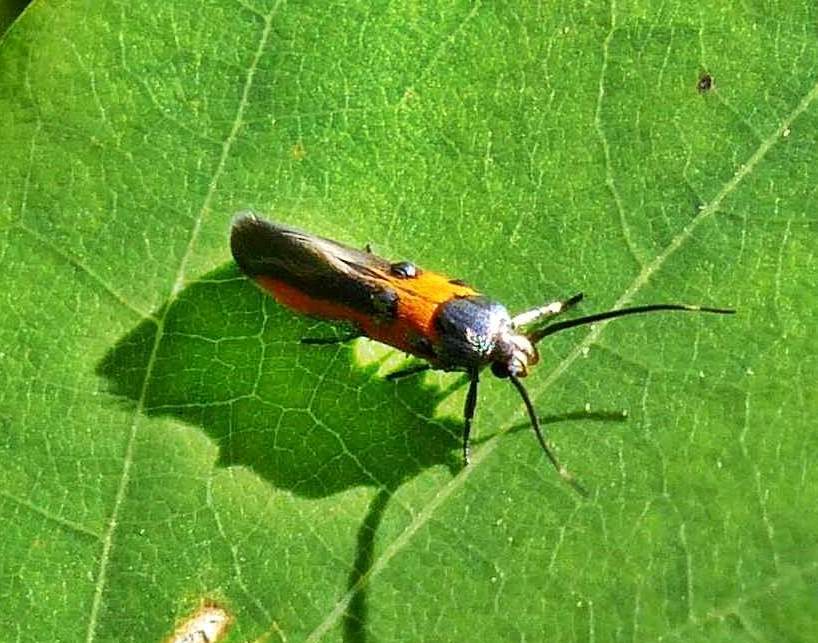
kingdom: Animalia
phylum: Arthropoda
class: Insecta
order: Lepidoptera
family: Cosmopterigidae
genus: Euclemensia
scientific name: Euclemensia bassettella
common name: Kermes scale moth
